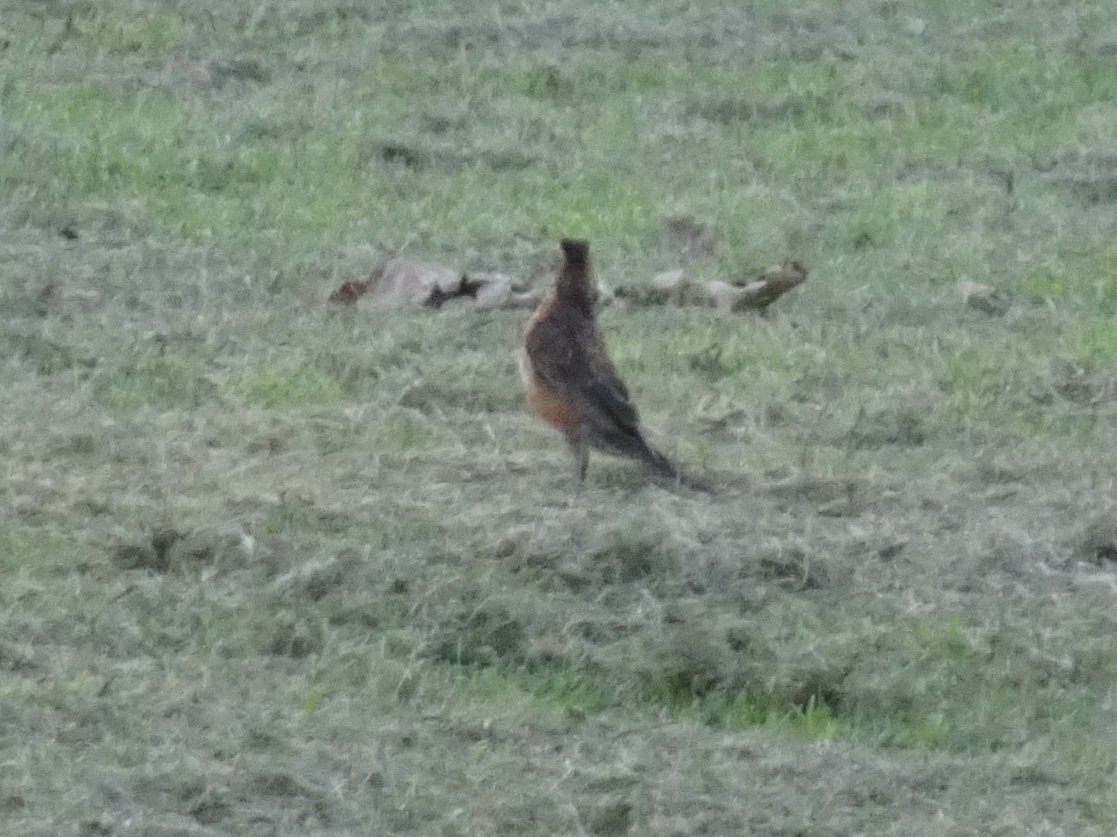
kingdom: Animalia
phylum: Chordata
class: Aves
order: Passeriformes
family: Turdidae
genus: Turdus
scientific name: Turdus migratorius
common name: American robin
